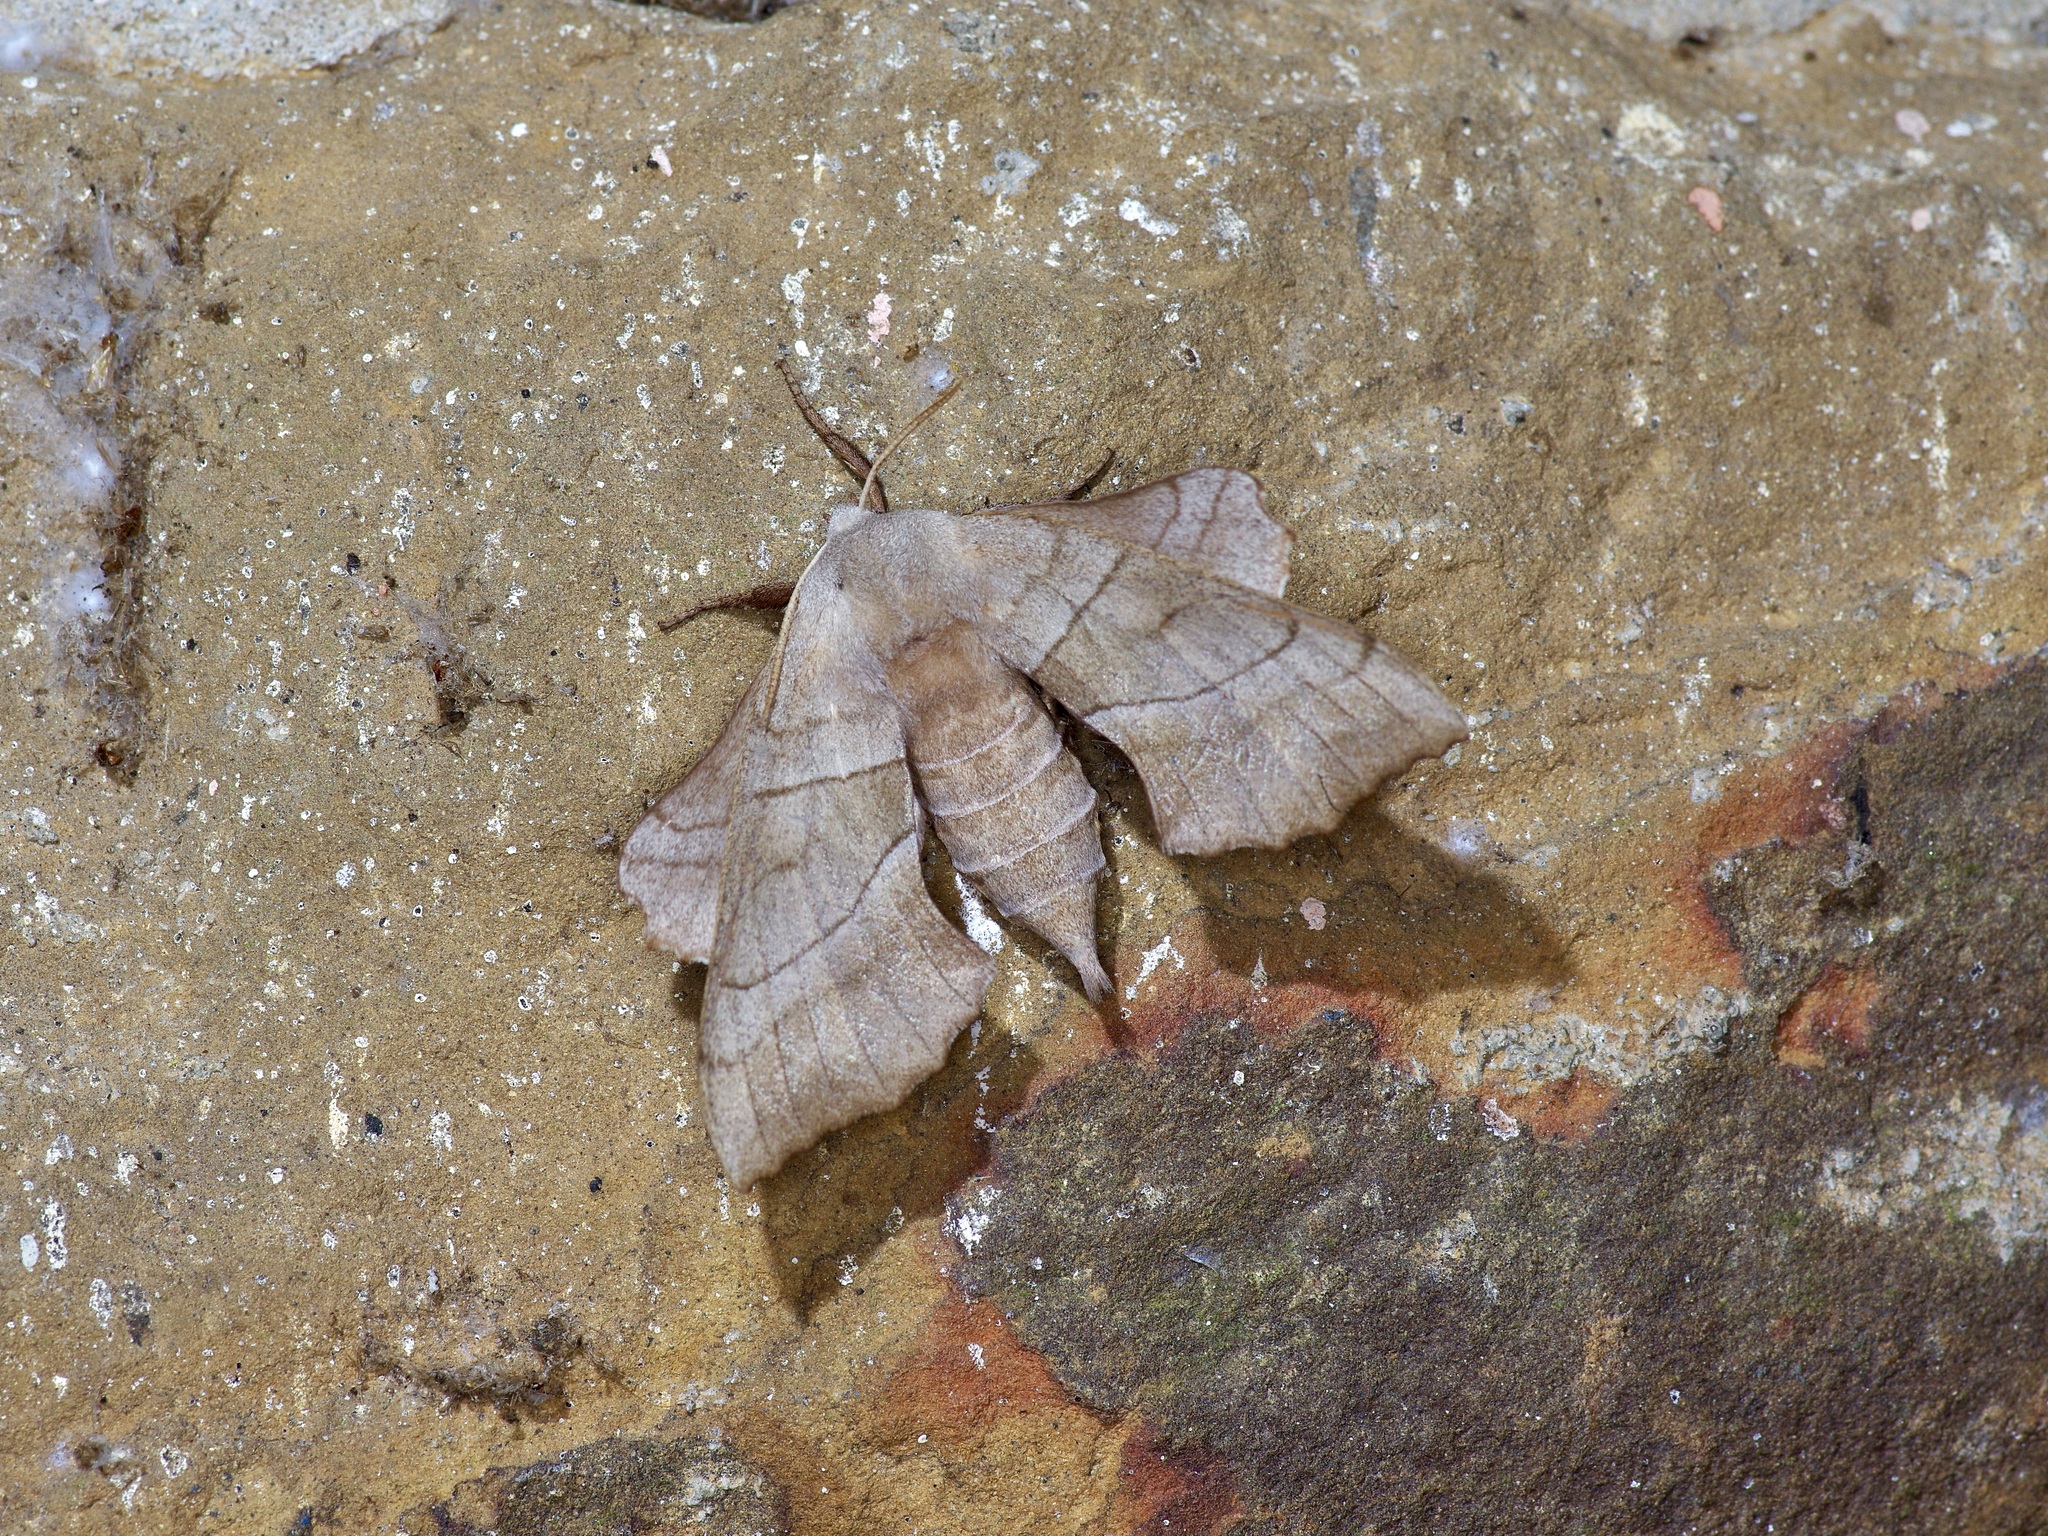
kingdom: Animalia
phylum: Arthropoda
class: Insecta
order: Lepidoptera
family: Sphingidae
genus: Amorpha
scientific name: Amorpha juglandis
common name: Walnut sphinx
